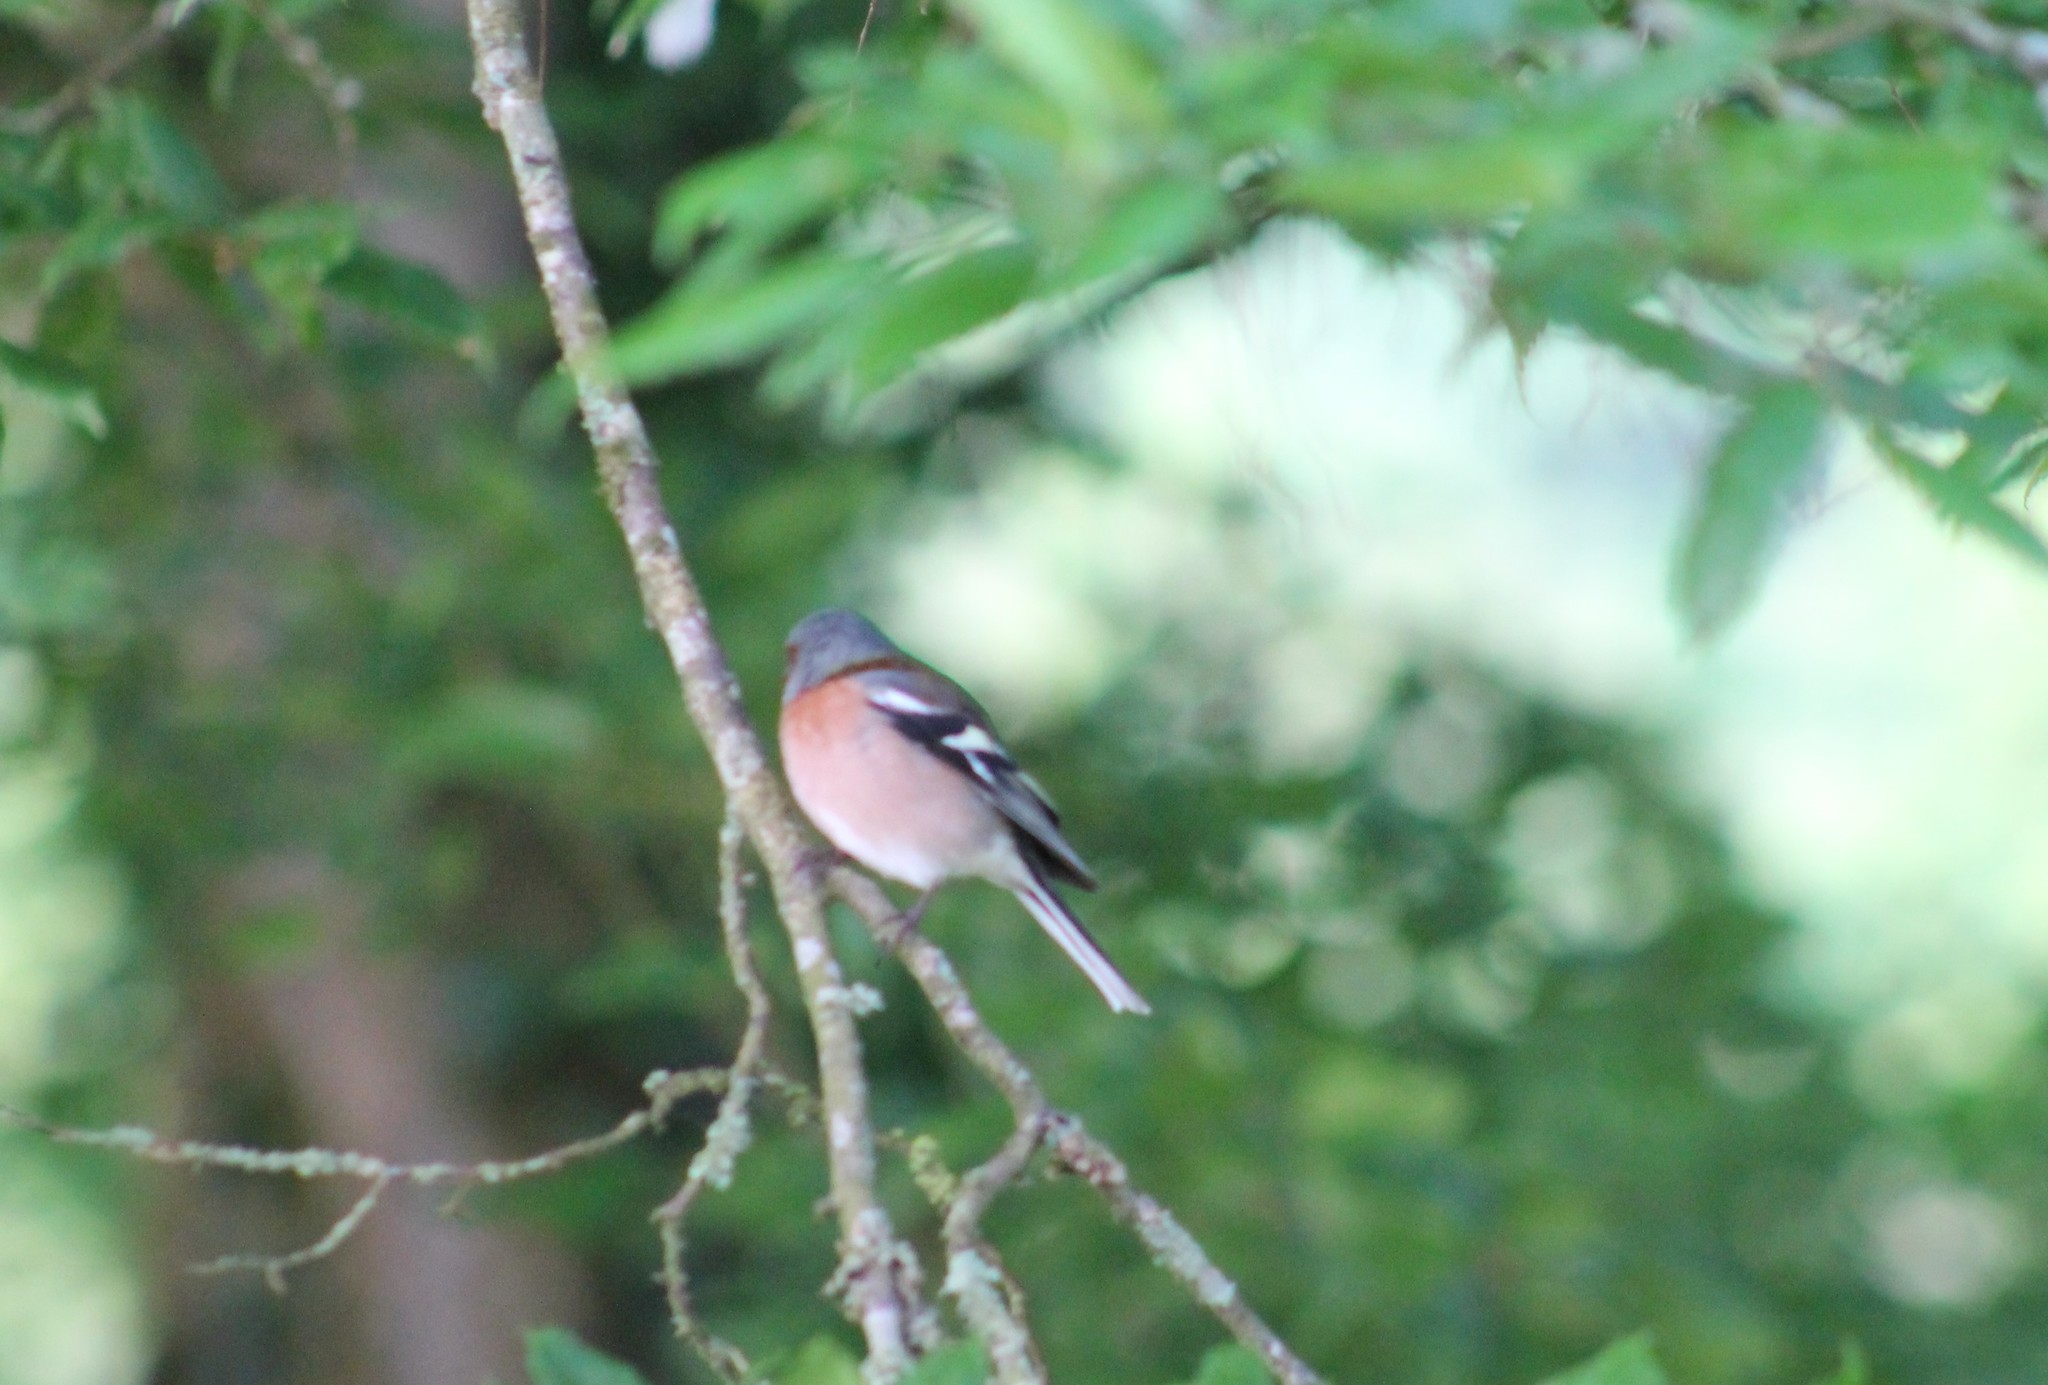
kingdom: Animalia
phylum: Chordata
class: Aves
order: Passeriformes
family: Fringillidae
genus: Fringilla
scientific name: Fringilla coelebs
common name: Common chaffinch
